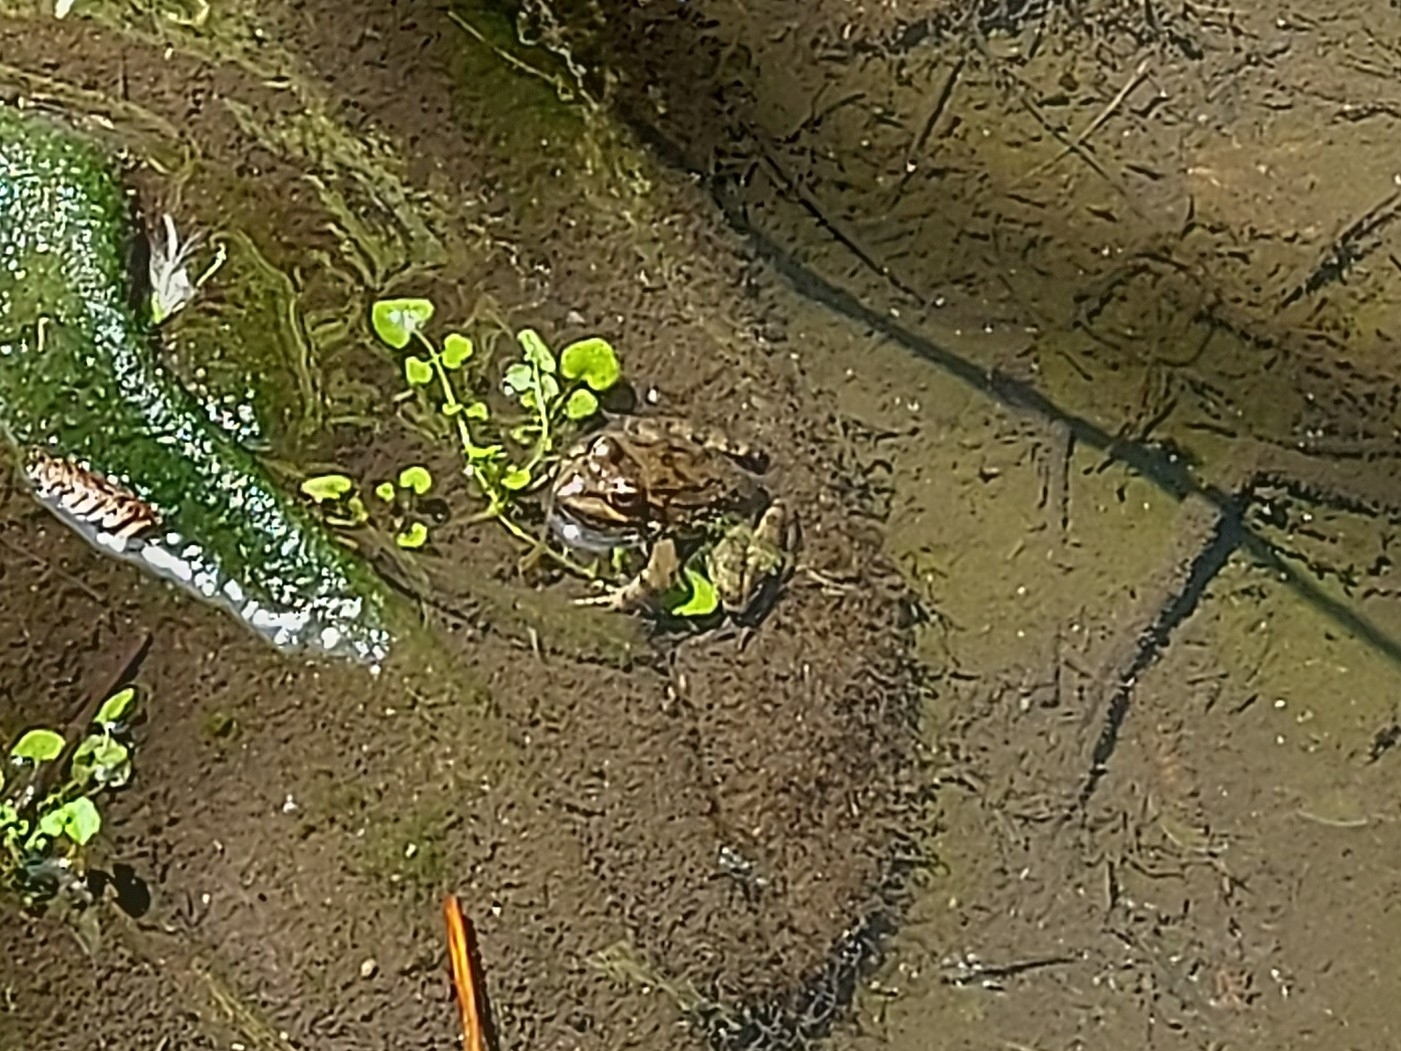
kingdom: Animalia
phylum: Chordata
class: Amphibia
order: Anura
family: Pyxicephalidae
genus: Amietia
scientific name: Amietia fuscigula
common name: Cape rana
